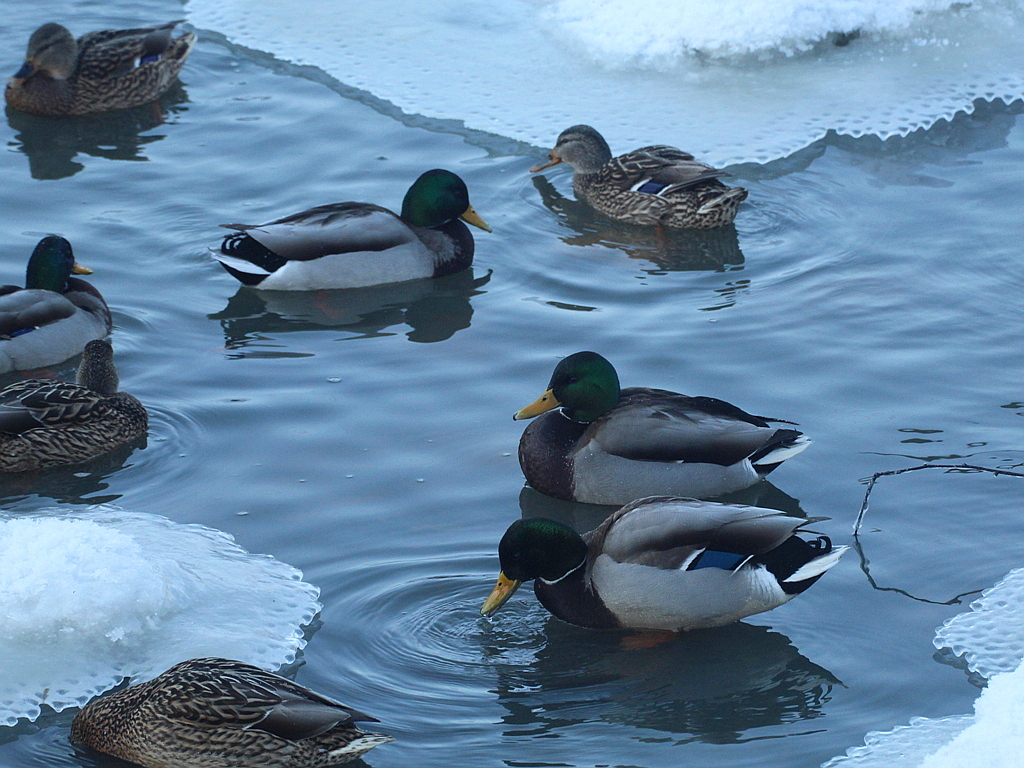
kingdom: Animalia
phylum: Chordata
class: Aves
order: Anseriformes
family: Anatidae
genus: Anas
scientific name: Anas platyrhynchos
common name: Mallard
